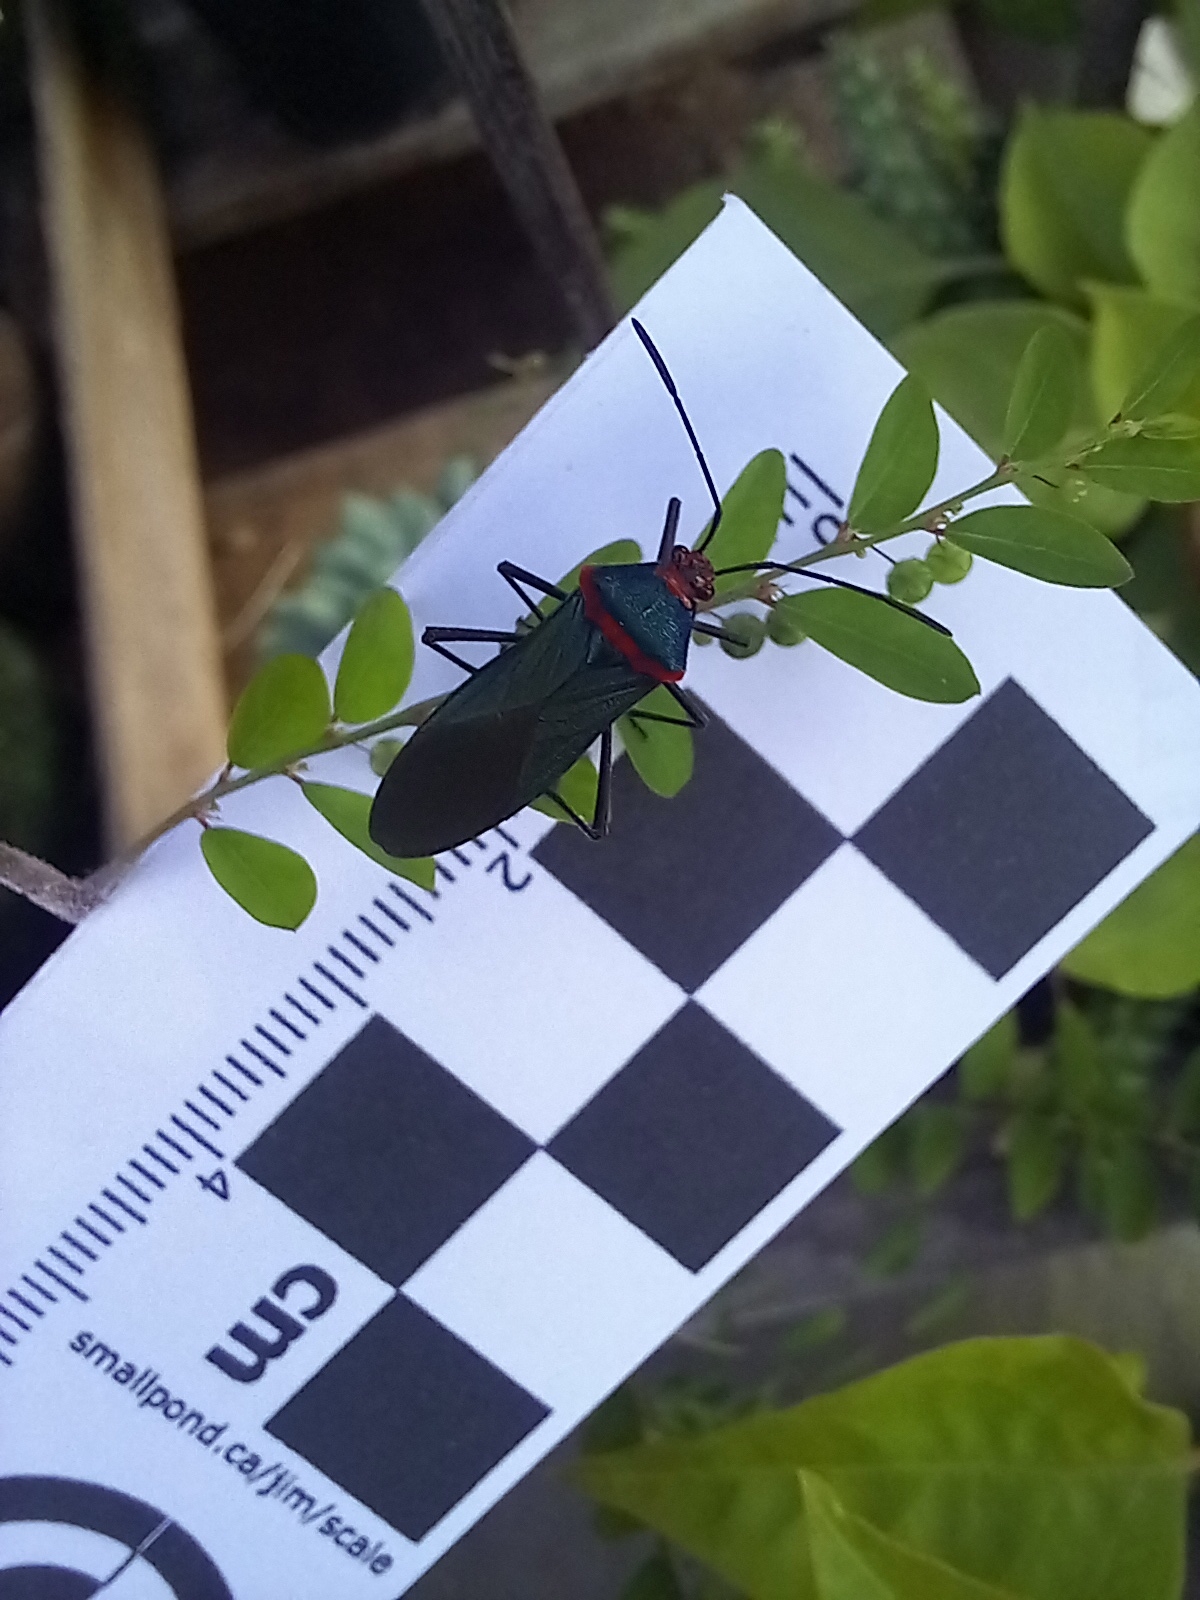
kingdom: Animalia
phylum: Arthropoda
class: Insecta
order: Hemiptera
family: Coreidae
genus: Sphictyrtus
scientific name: Sphictyrtus chrysis
